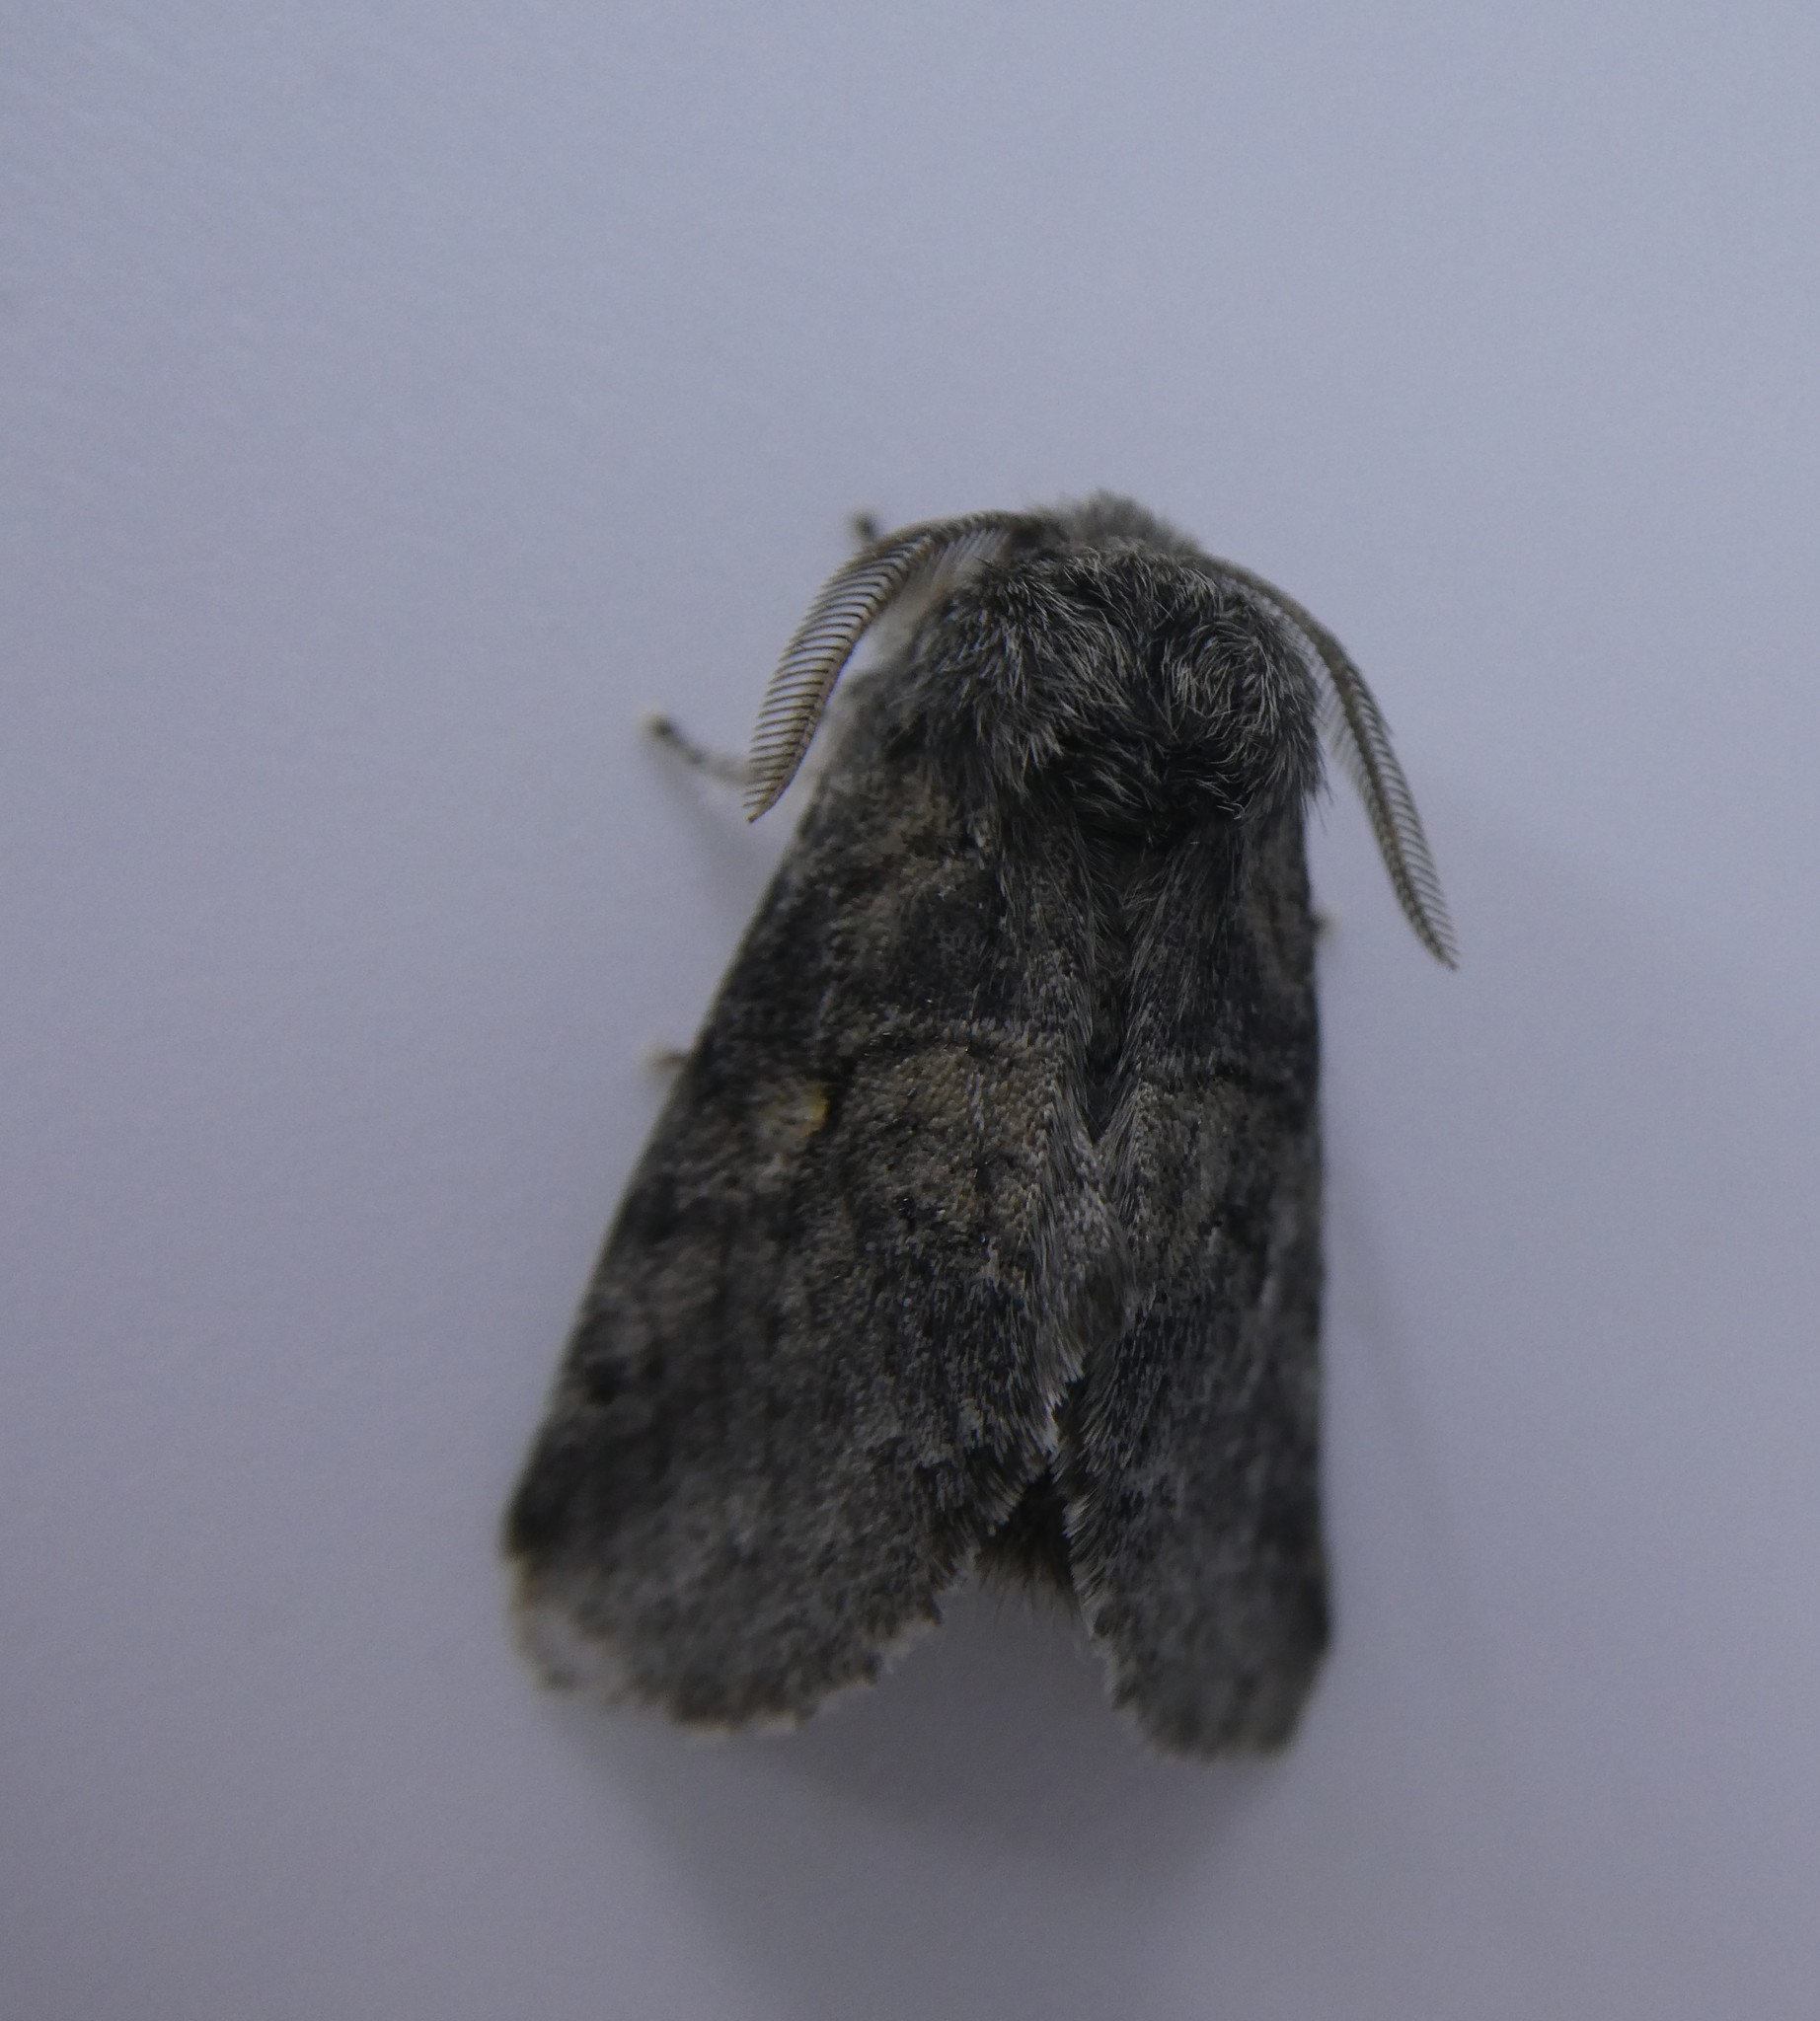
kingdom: Animalia
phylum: Arthropoda
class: Insecta
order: Lepidoptera
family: Notodontidae
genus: Gluphisia
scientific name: Gluphisia septentrionis
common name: Common gluphisia
